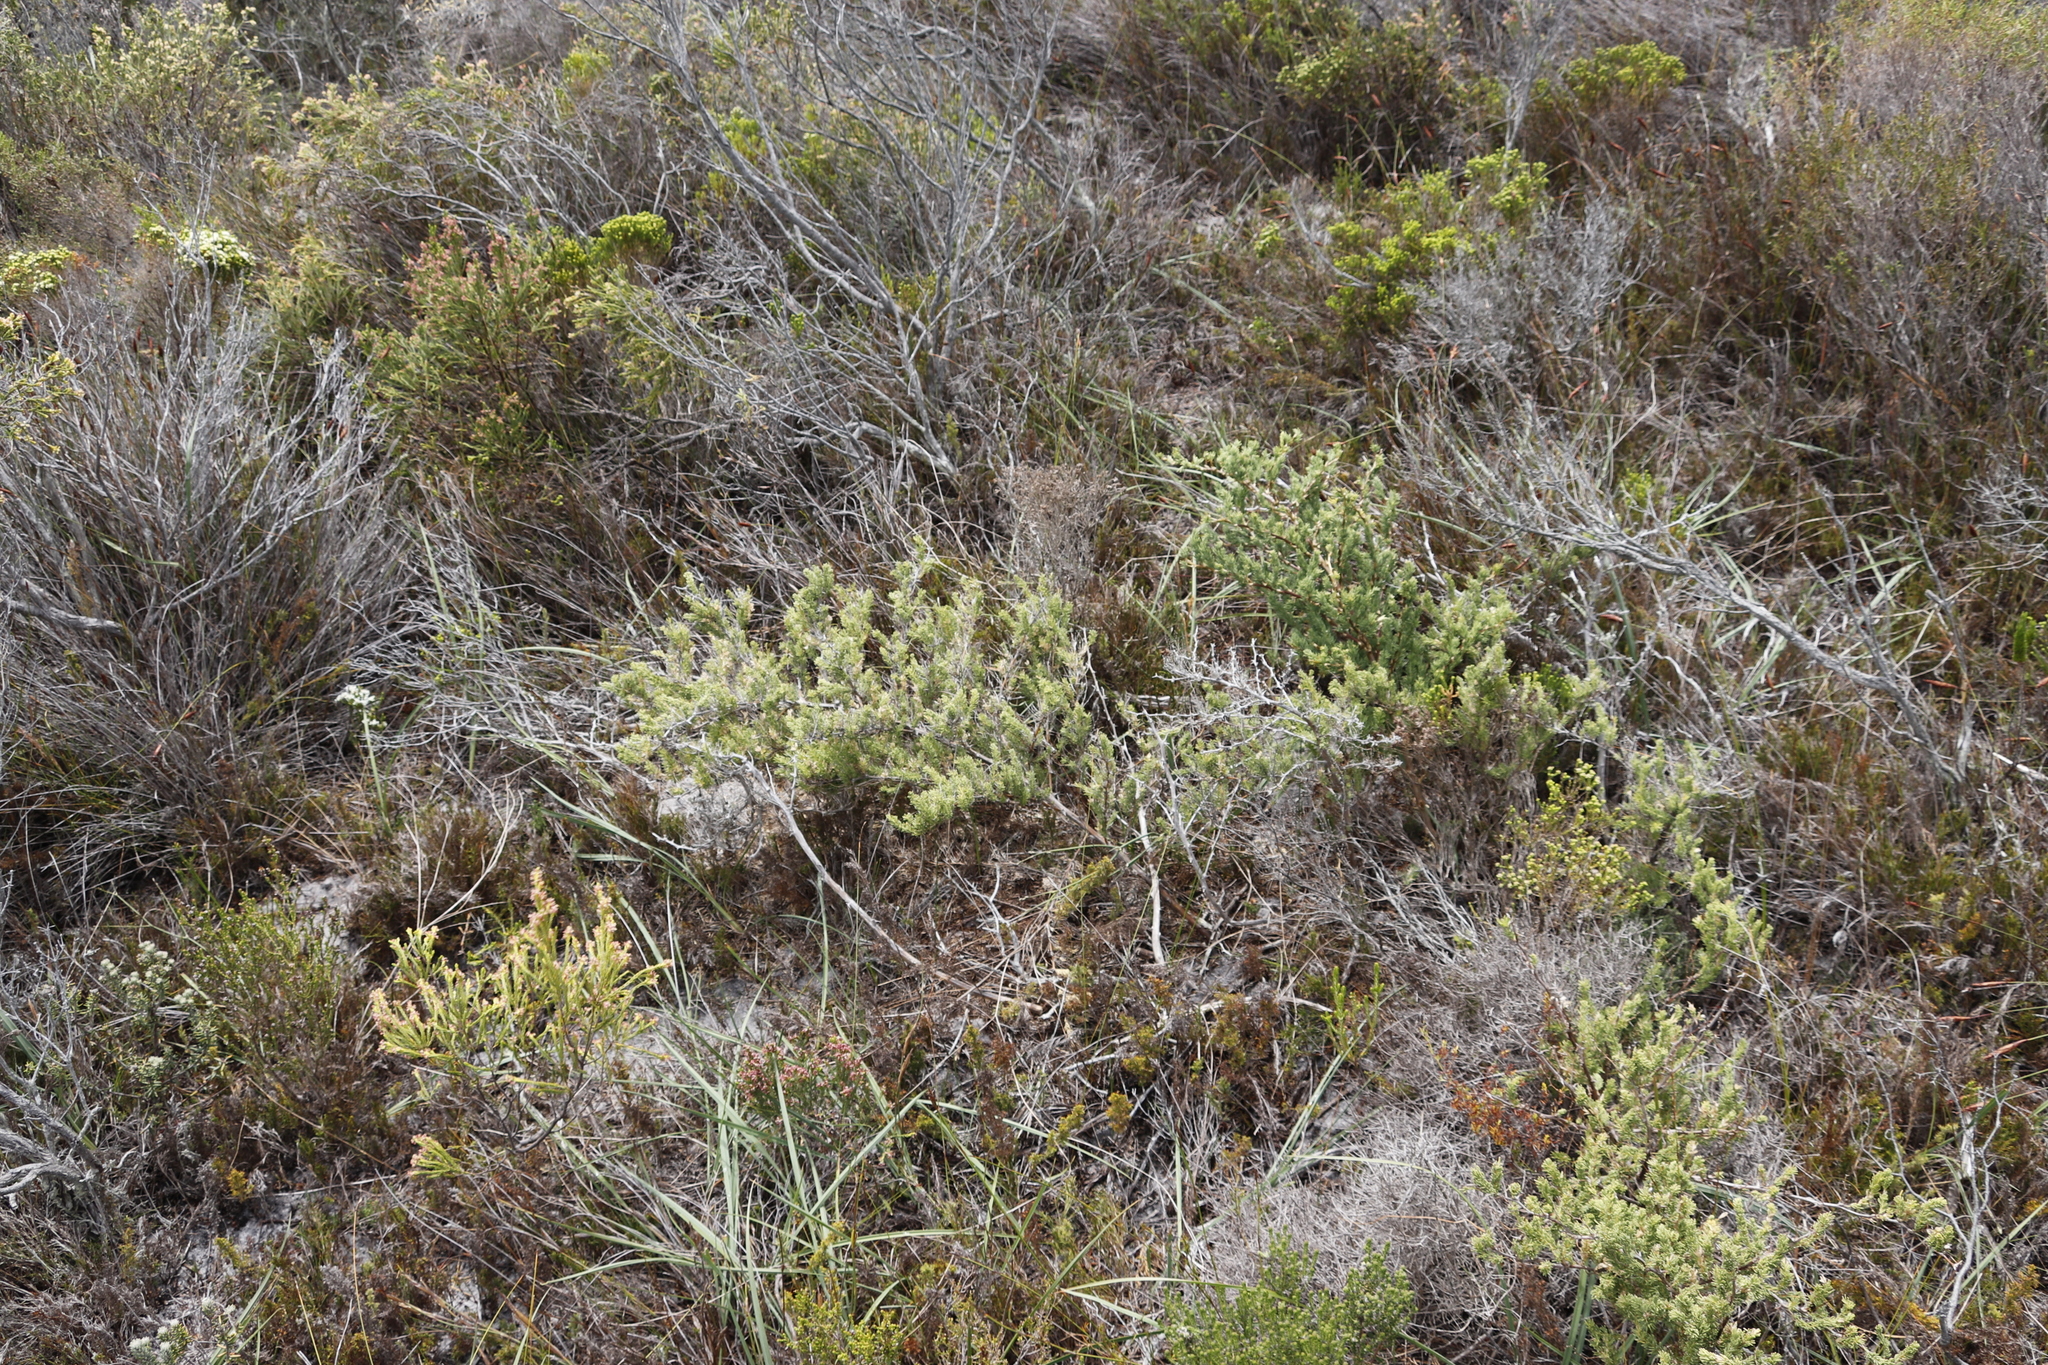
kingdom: Plantae
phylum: Tracheophyta
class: Liliopsida
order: Asparagales
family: Asparagaceae
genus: Asparagus
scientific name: Asparagus rubicundus
